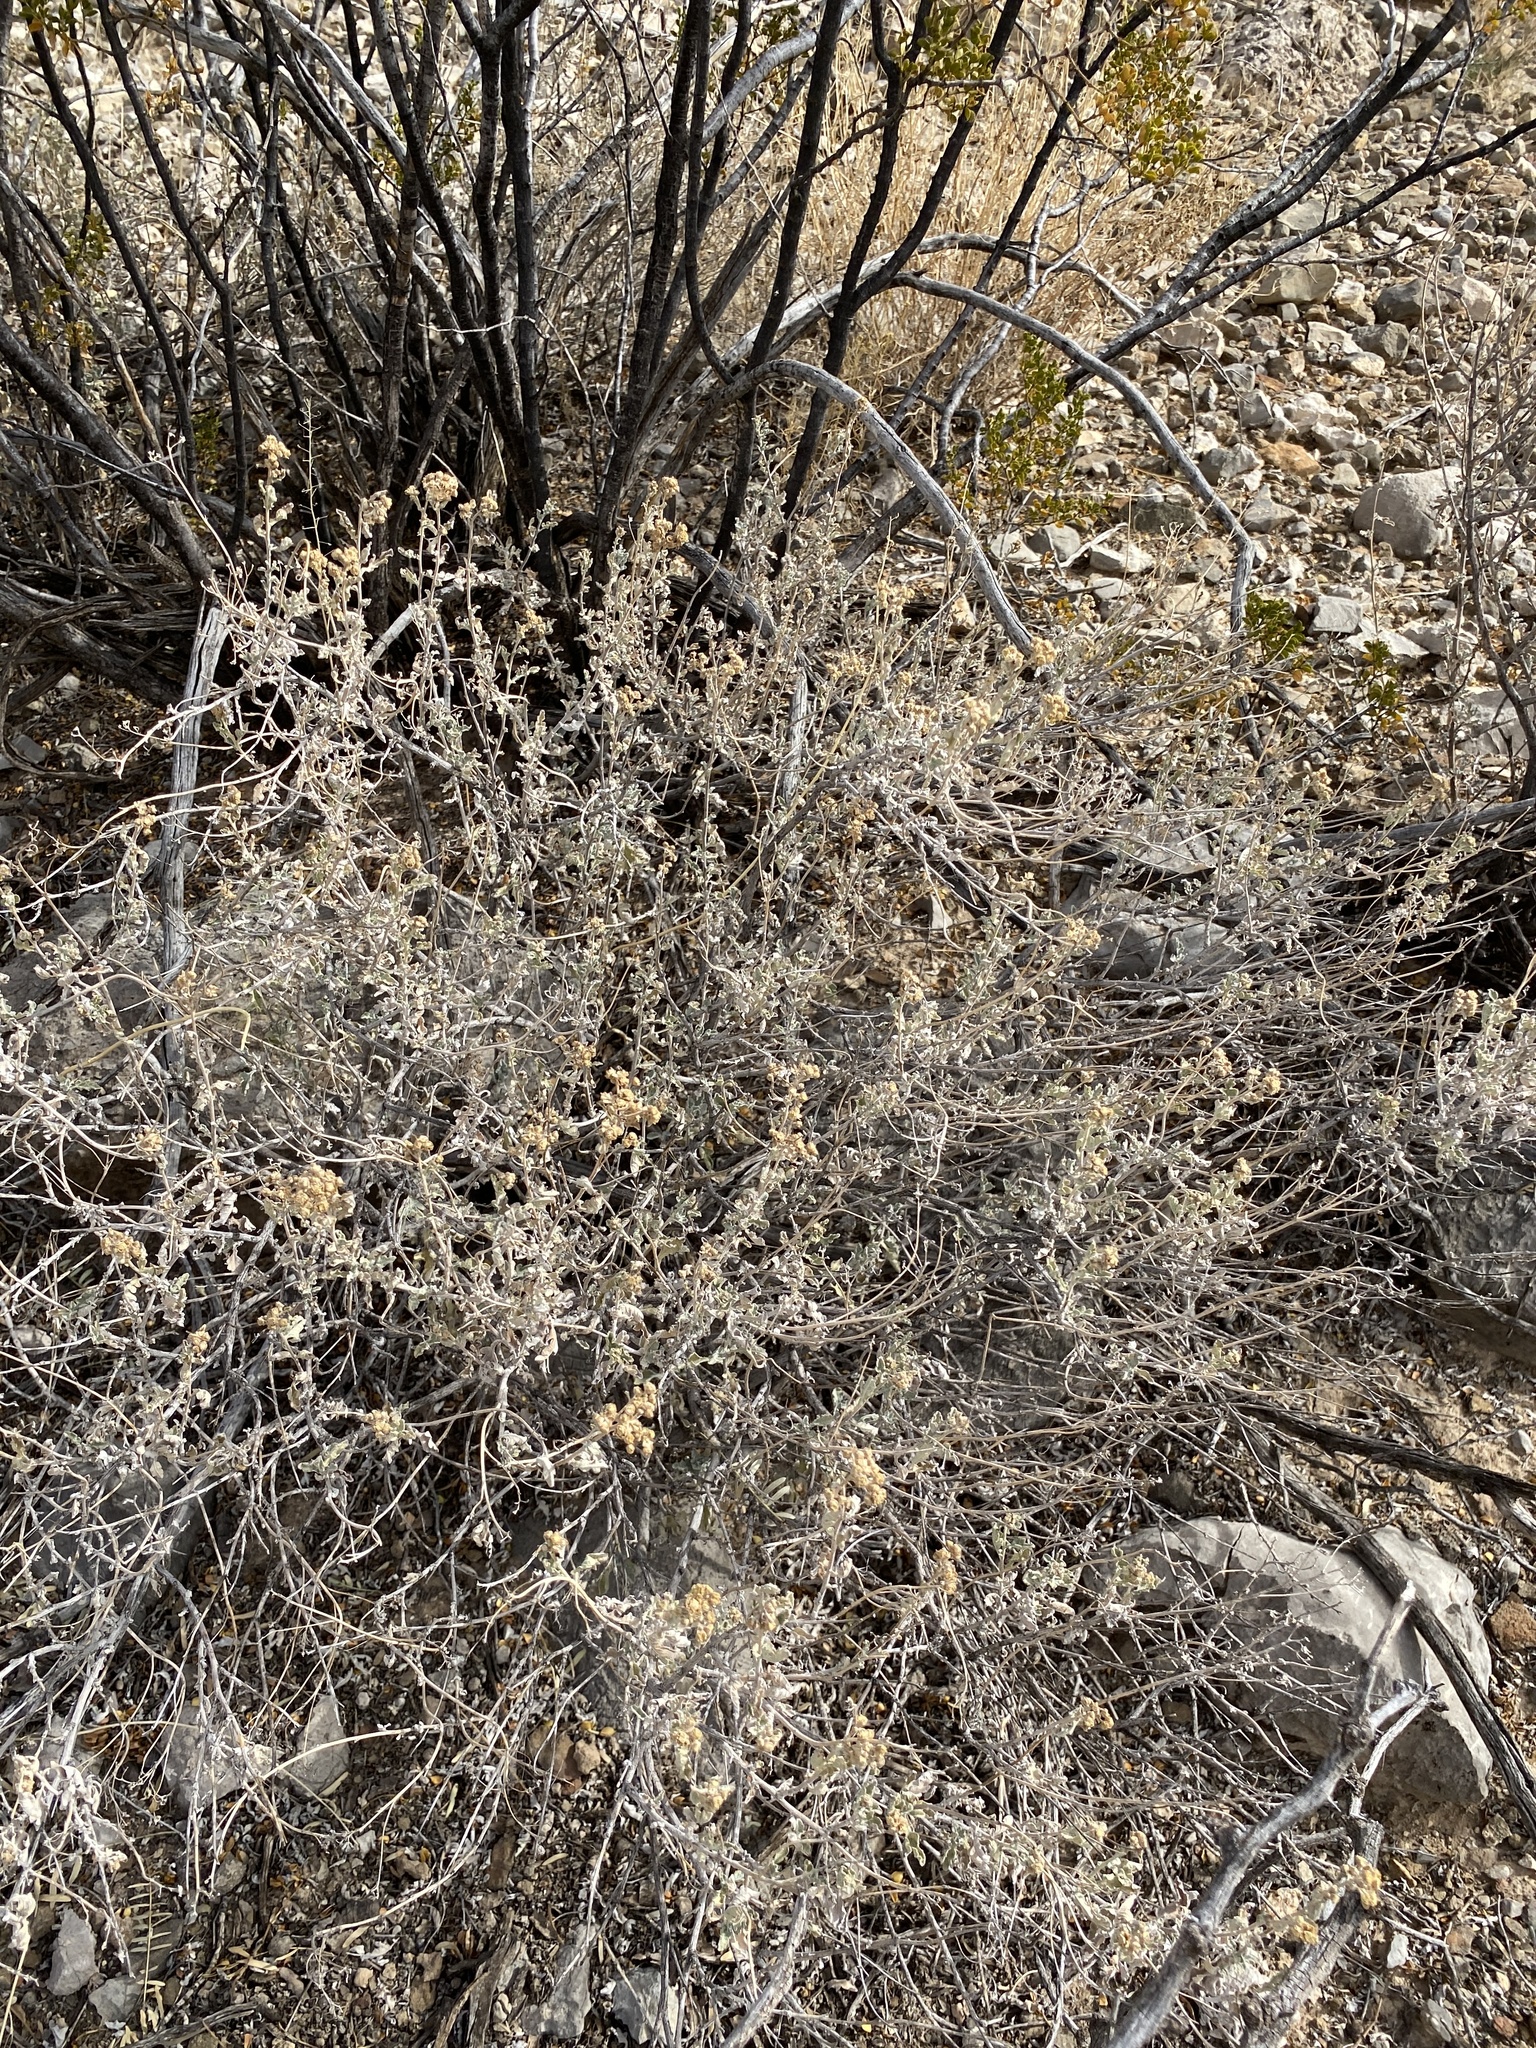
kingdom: Plantae
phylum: Tracheophyta
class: Magnoliopsida
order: Asterales
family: Asteraceae
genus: Parthenium
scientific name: Parthenium incanum
